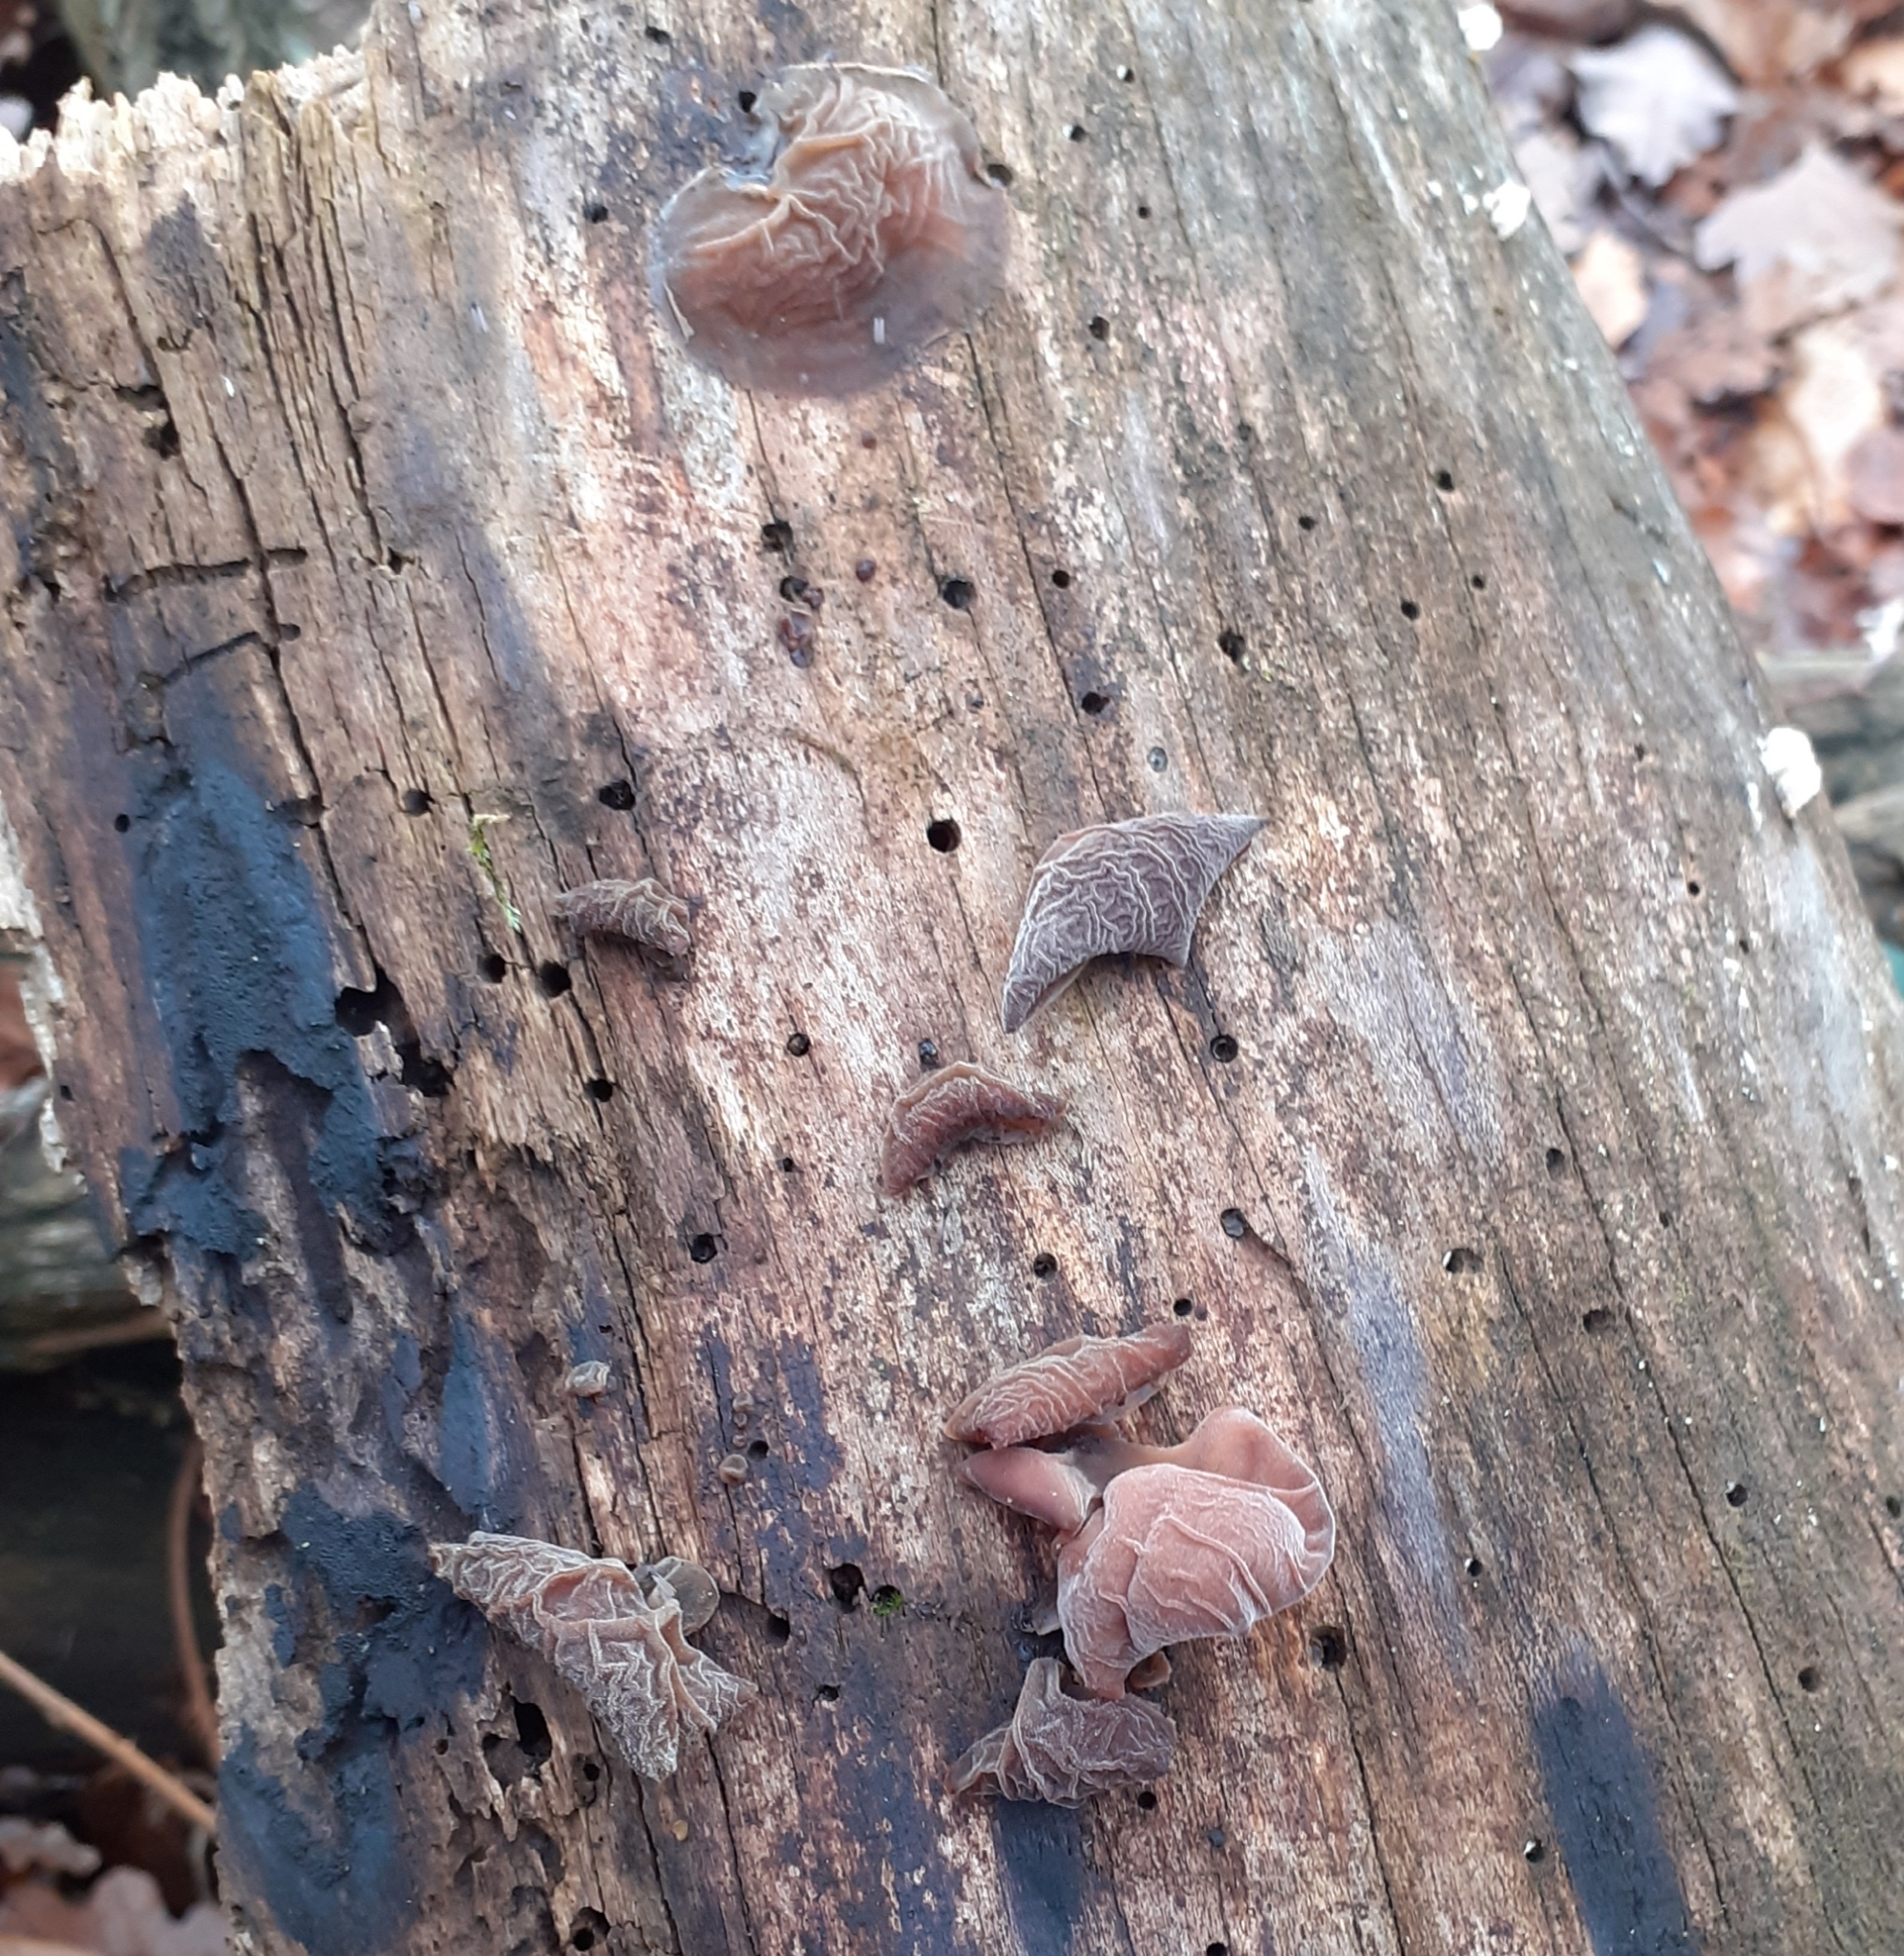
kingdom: Fungi
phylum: Basidiomycota
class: Agaricomycetes
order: Auriculariales
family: Auriculariaceae
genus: Auricularia
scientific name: Auricularia auricula-judae
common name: Jelly ear
